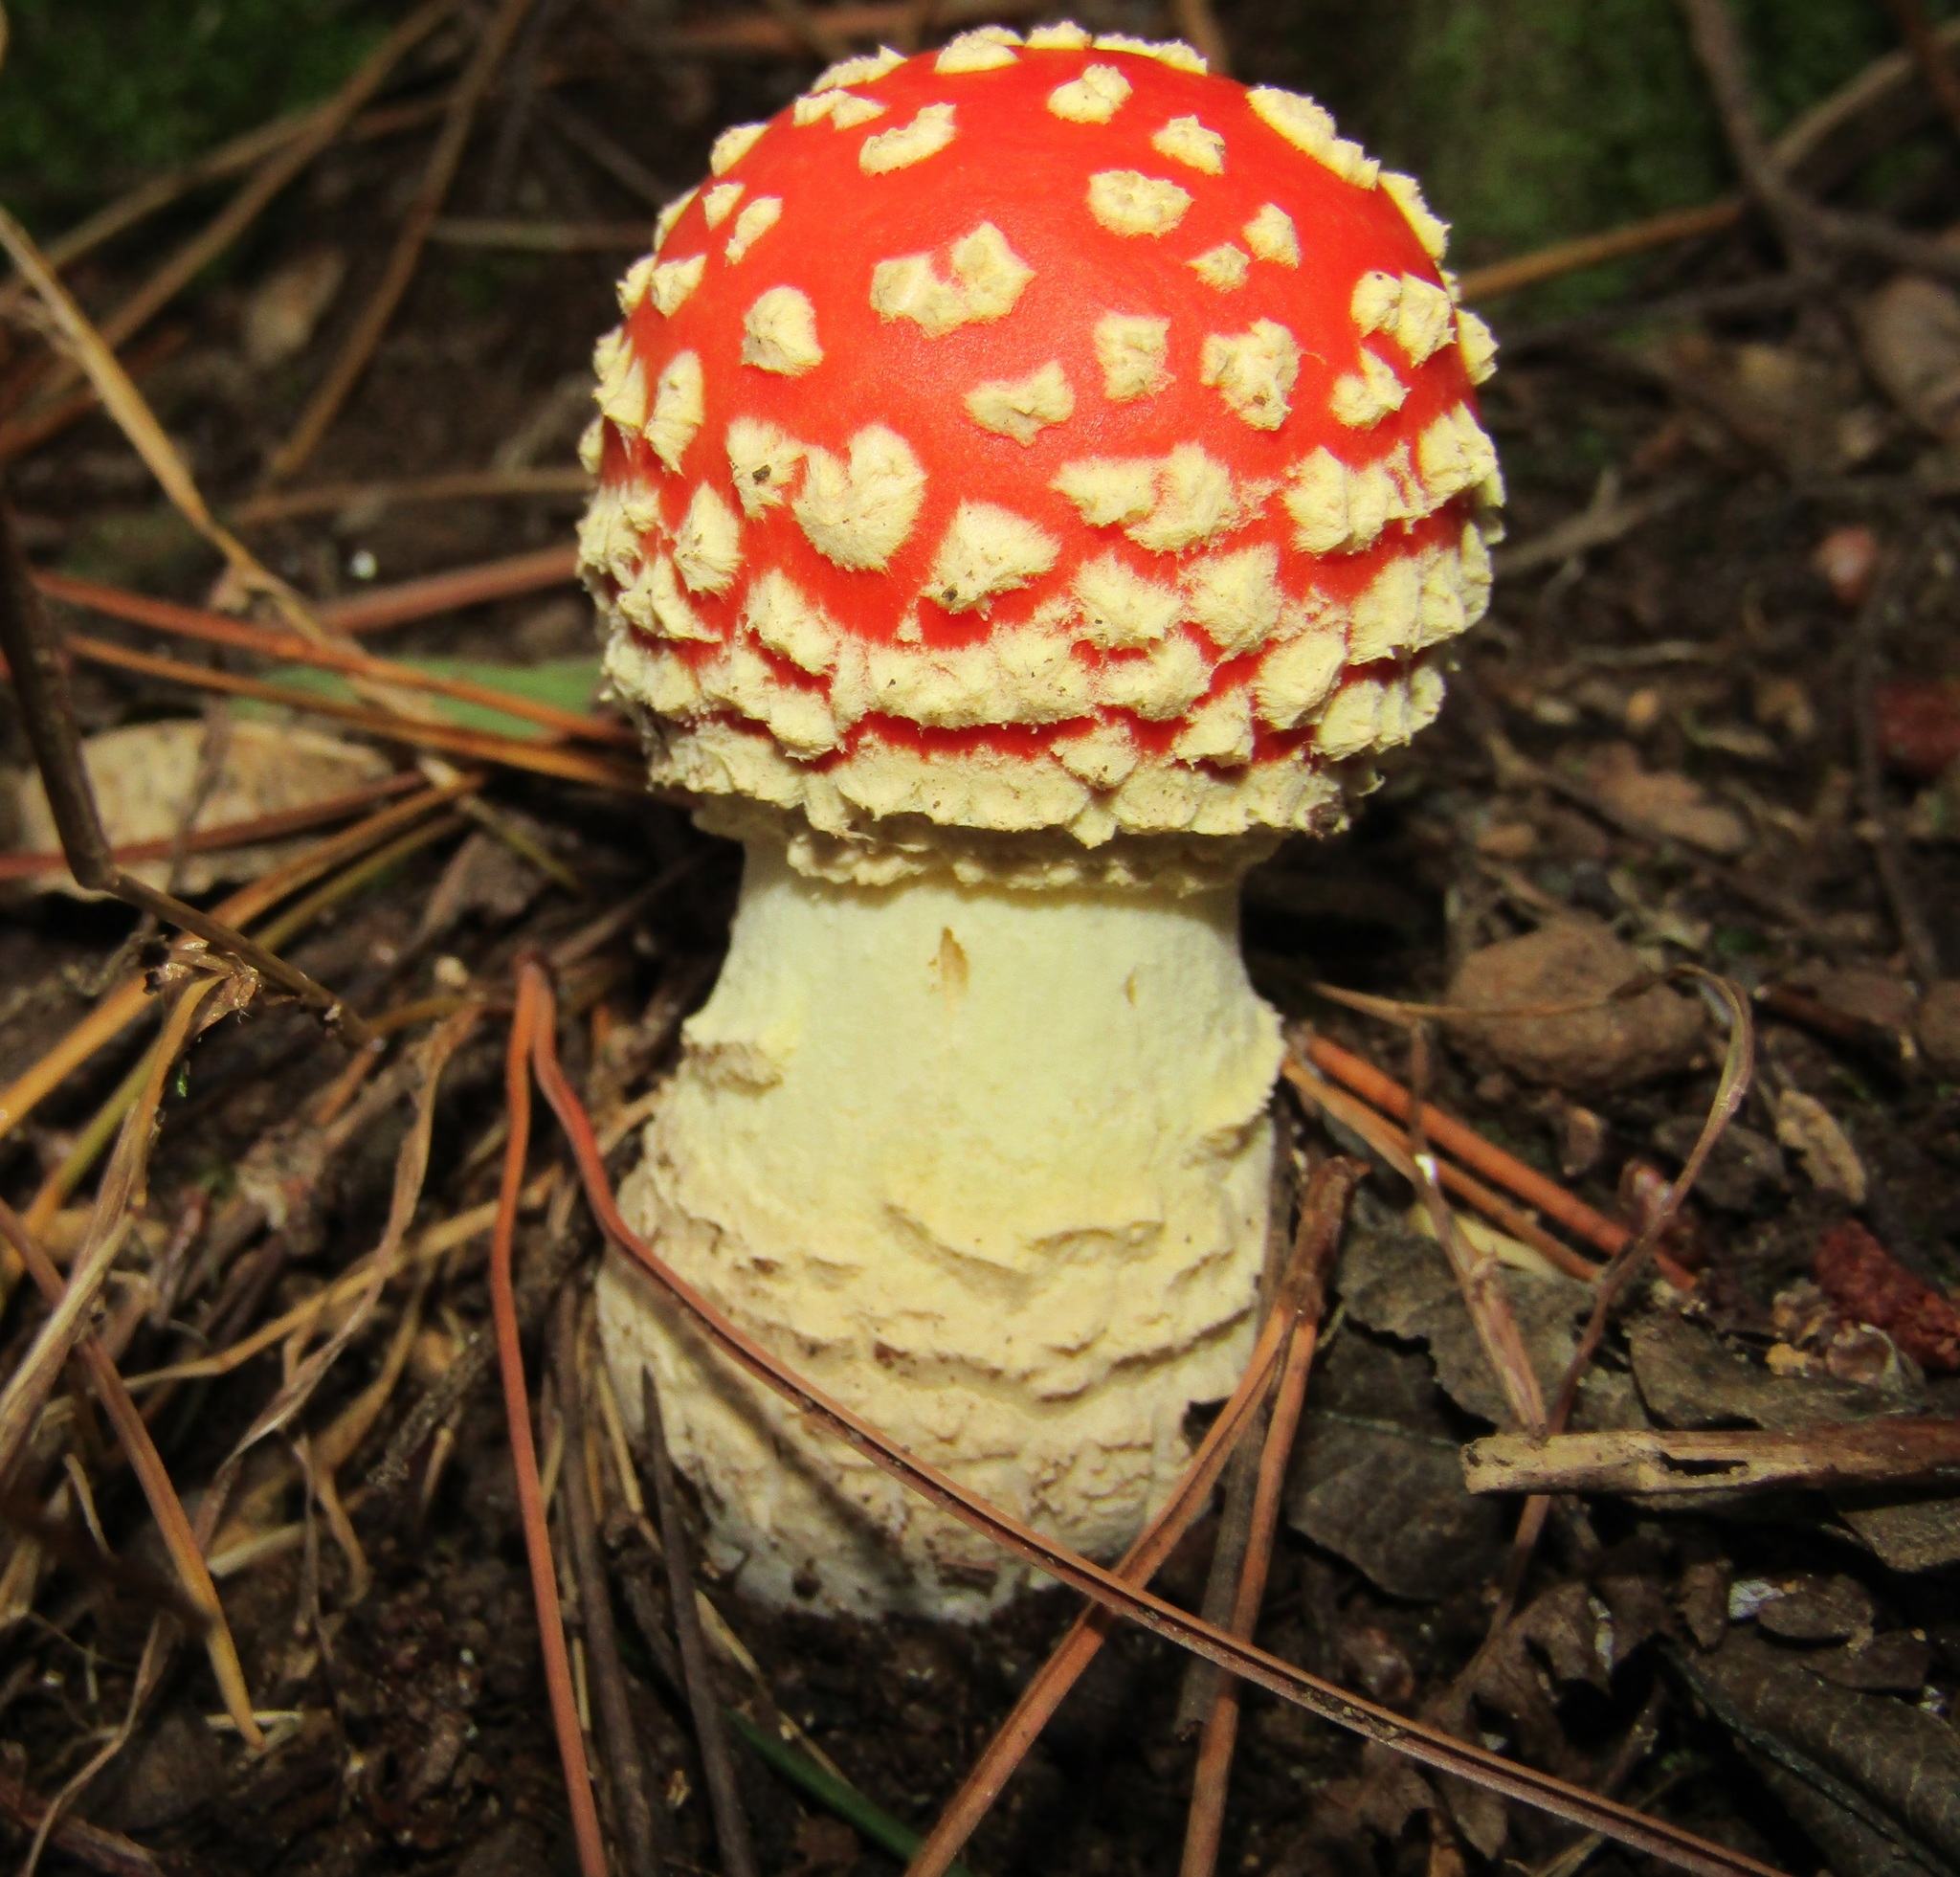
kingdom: Fungi
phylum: Basidiomycota
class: Agaricomycetes
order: Agaricales
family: Amanitaceae
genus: Amanita
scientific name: Amanita muscaria
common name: Fly agaric
